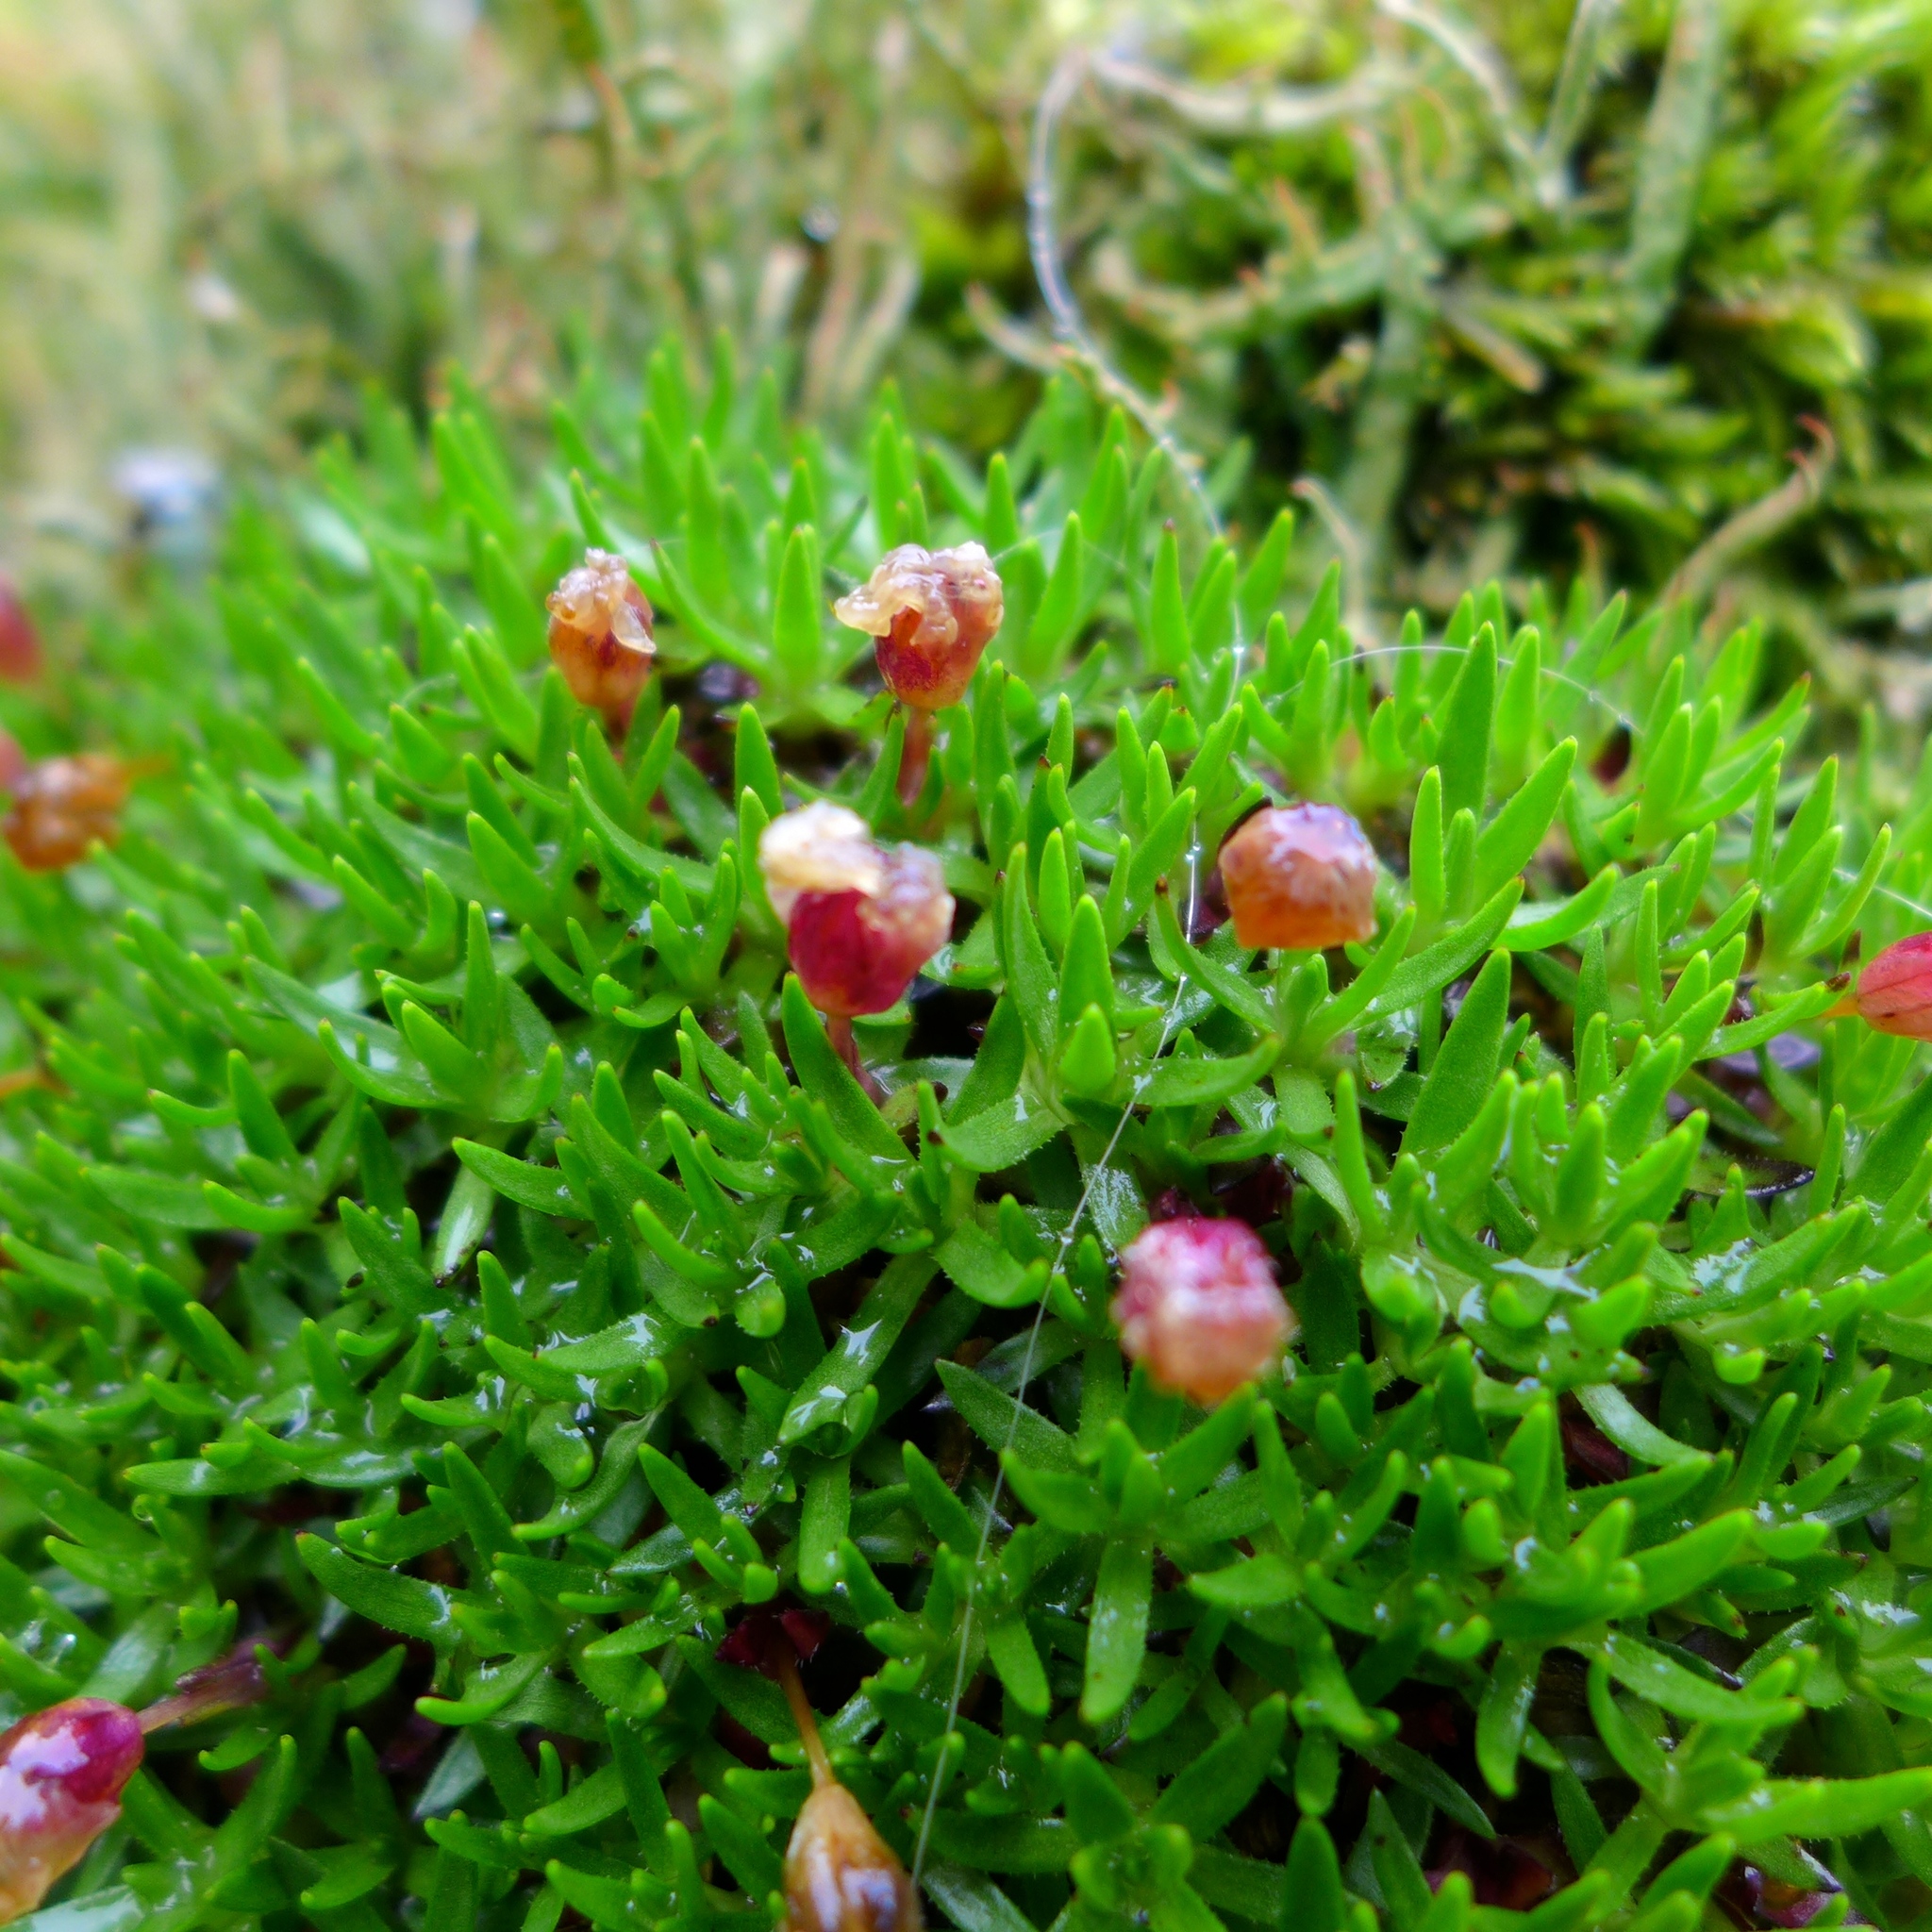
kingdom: Plantae
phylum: Tracheophyta
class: Magnoliopsida
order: Caryophyllales
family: Caryophyllaceae
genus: Silene
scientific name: Silene acaulis
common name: Moss campion
